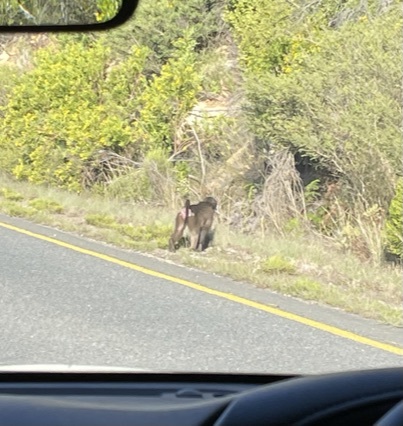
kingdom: Animalia
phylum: Chordata
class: Mammalia
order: Primates
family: Cercopithecidae
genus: Papio
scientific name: Papio ursinus
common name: Chacma baboon
